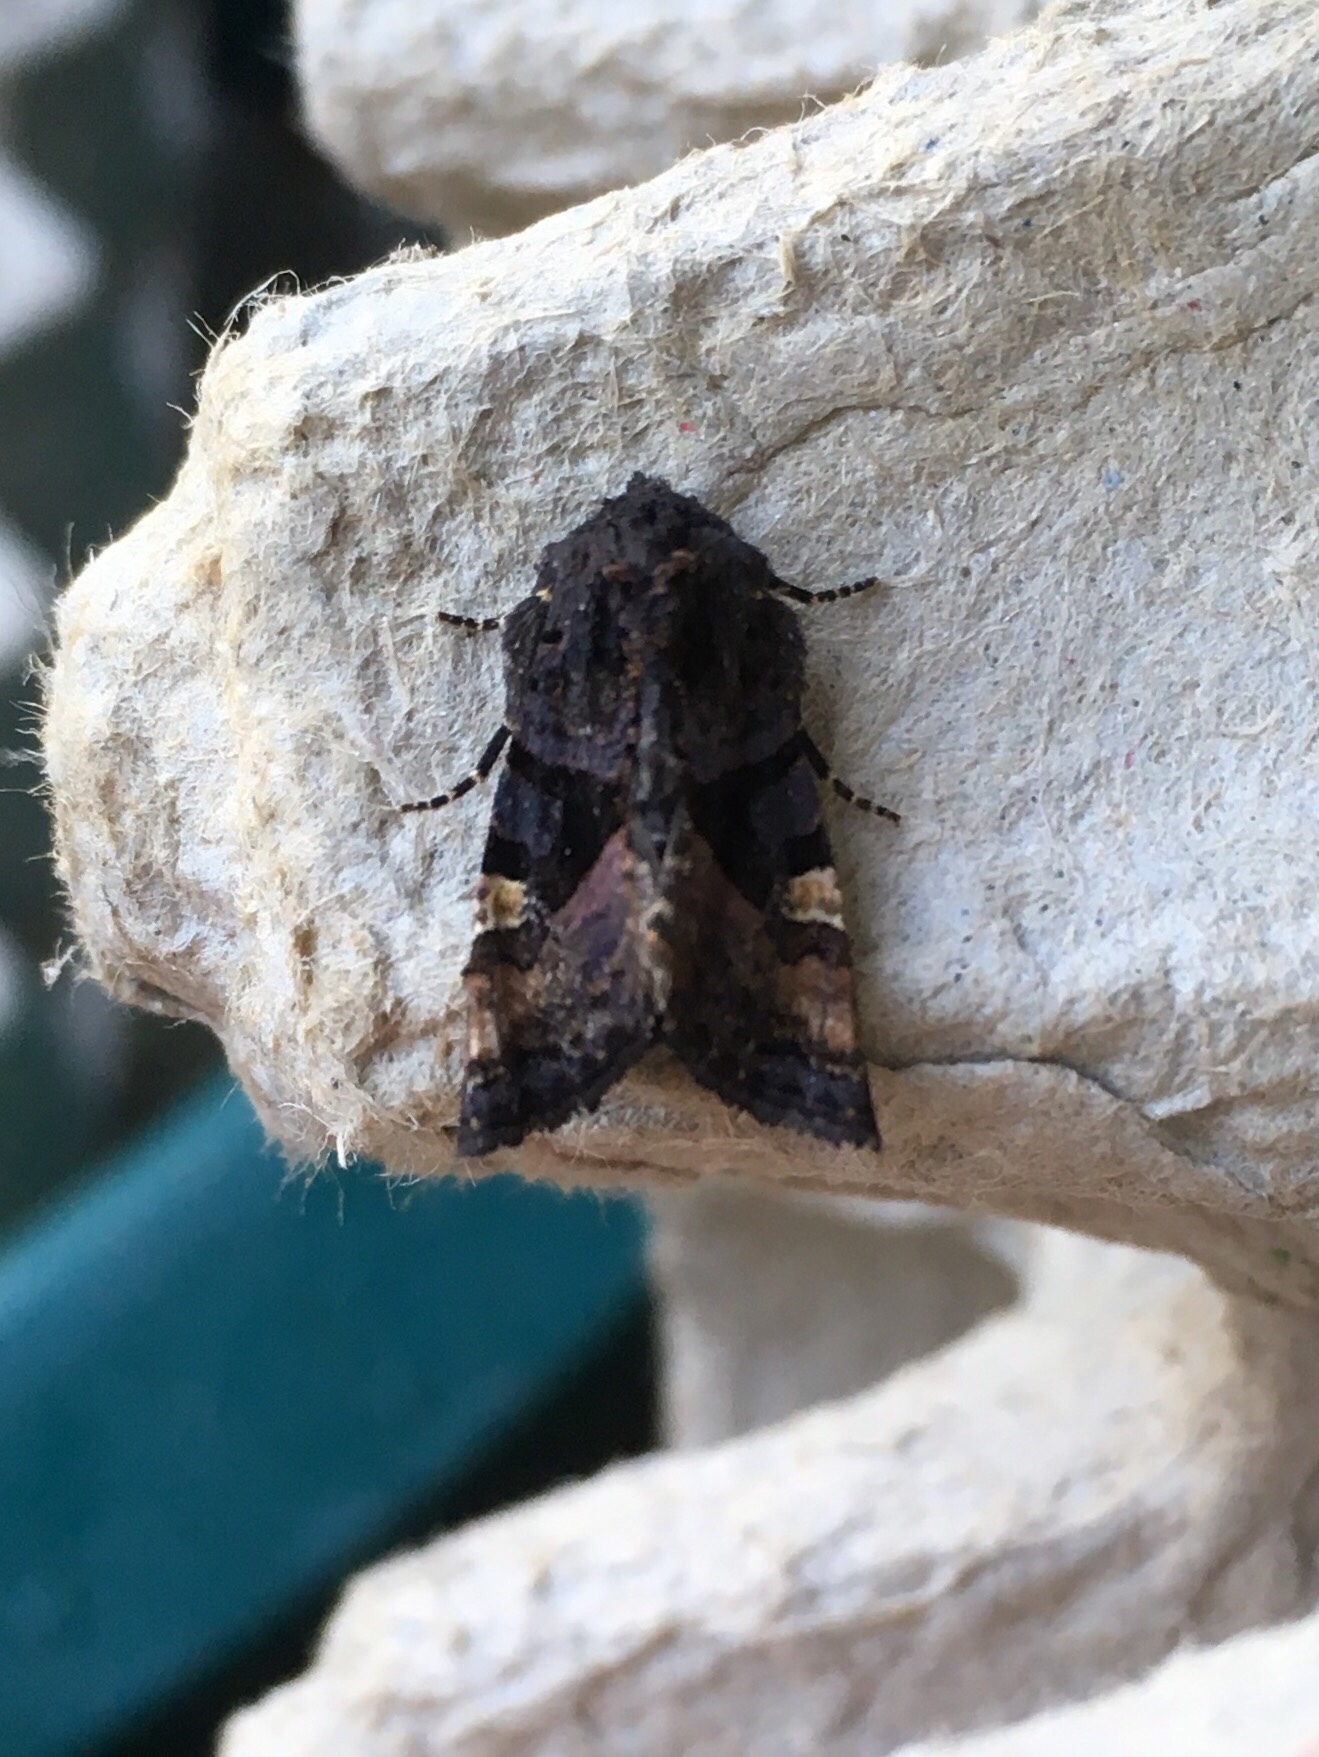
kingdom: Animalia
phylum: Arthropoda
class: Insecta
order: Lepidoptera
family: Noctuidae
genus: Euplexia
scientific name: Euplexia benesimilis
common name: American angle shades
